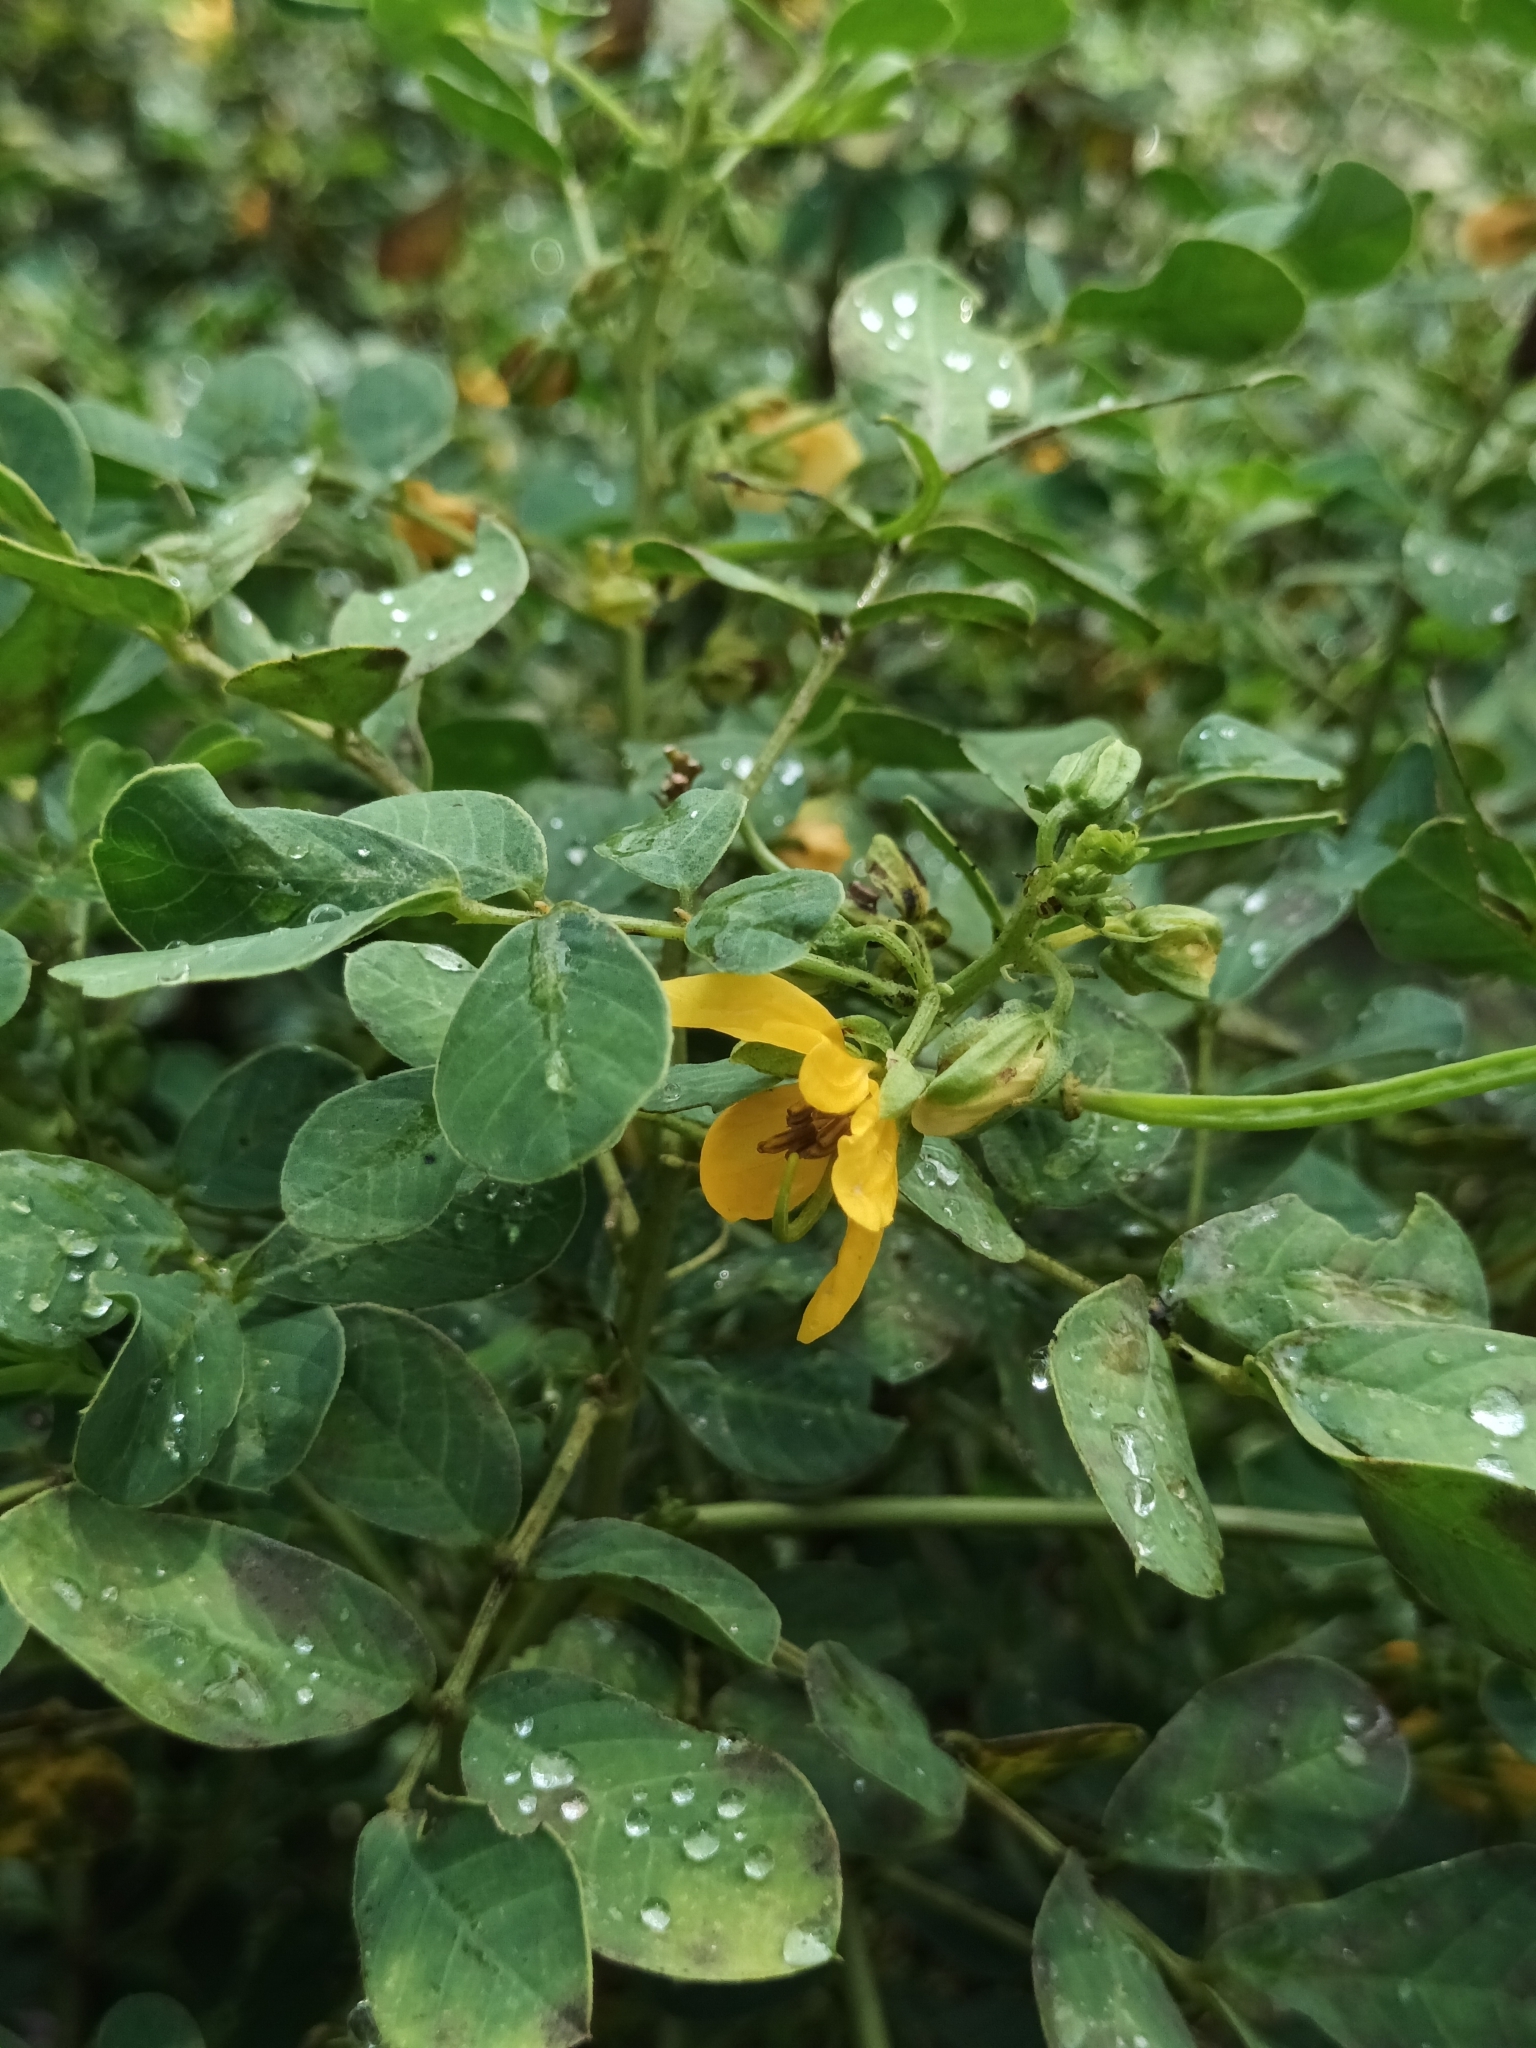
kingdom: Plantae
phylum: Tracheophyta
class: Magnoliopsida
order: Fabales
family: Fabaceae
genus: Senna
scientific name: Senna tora
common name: Sickle senna
